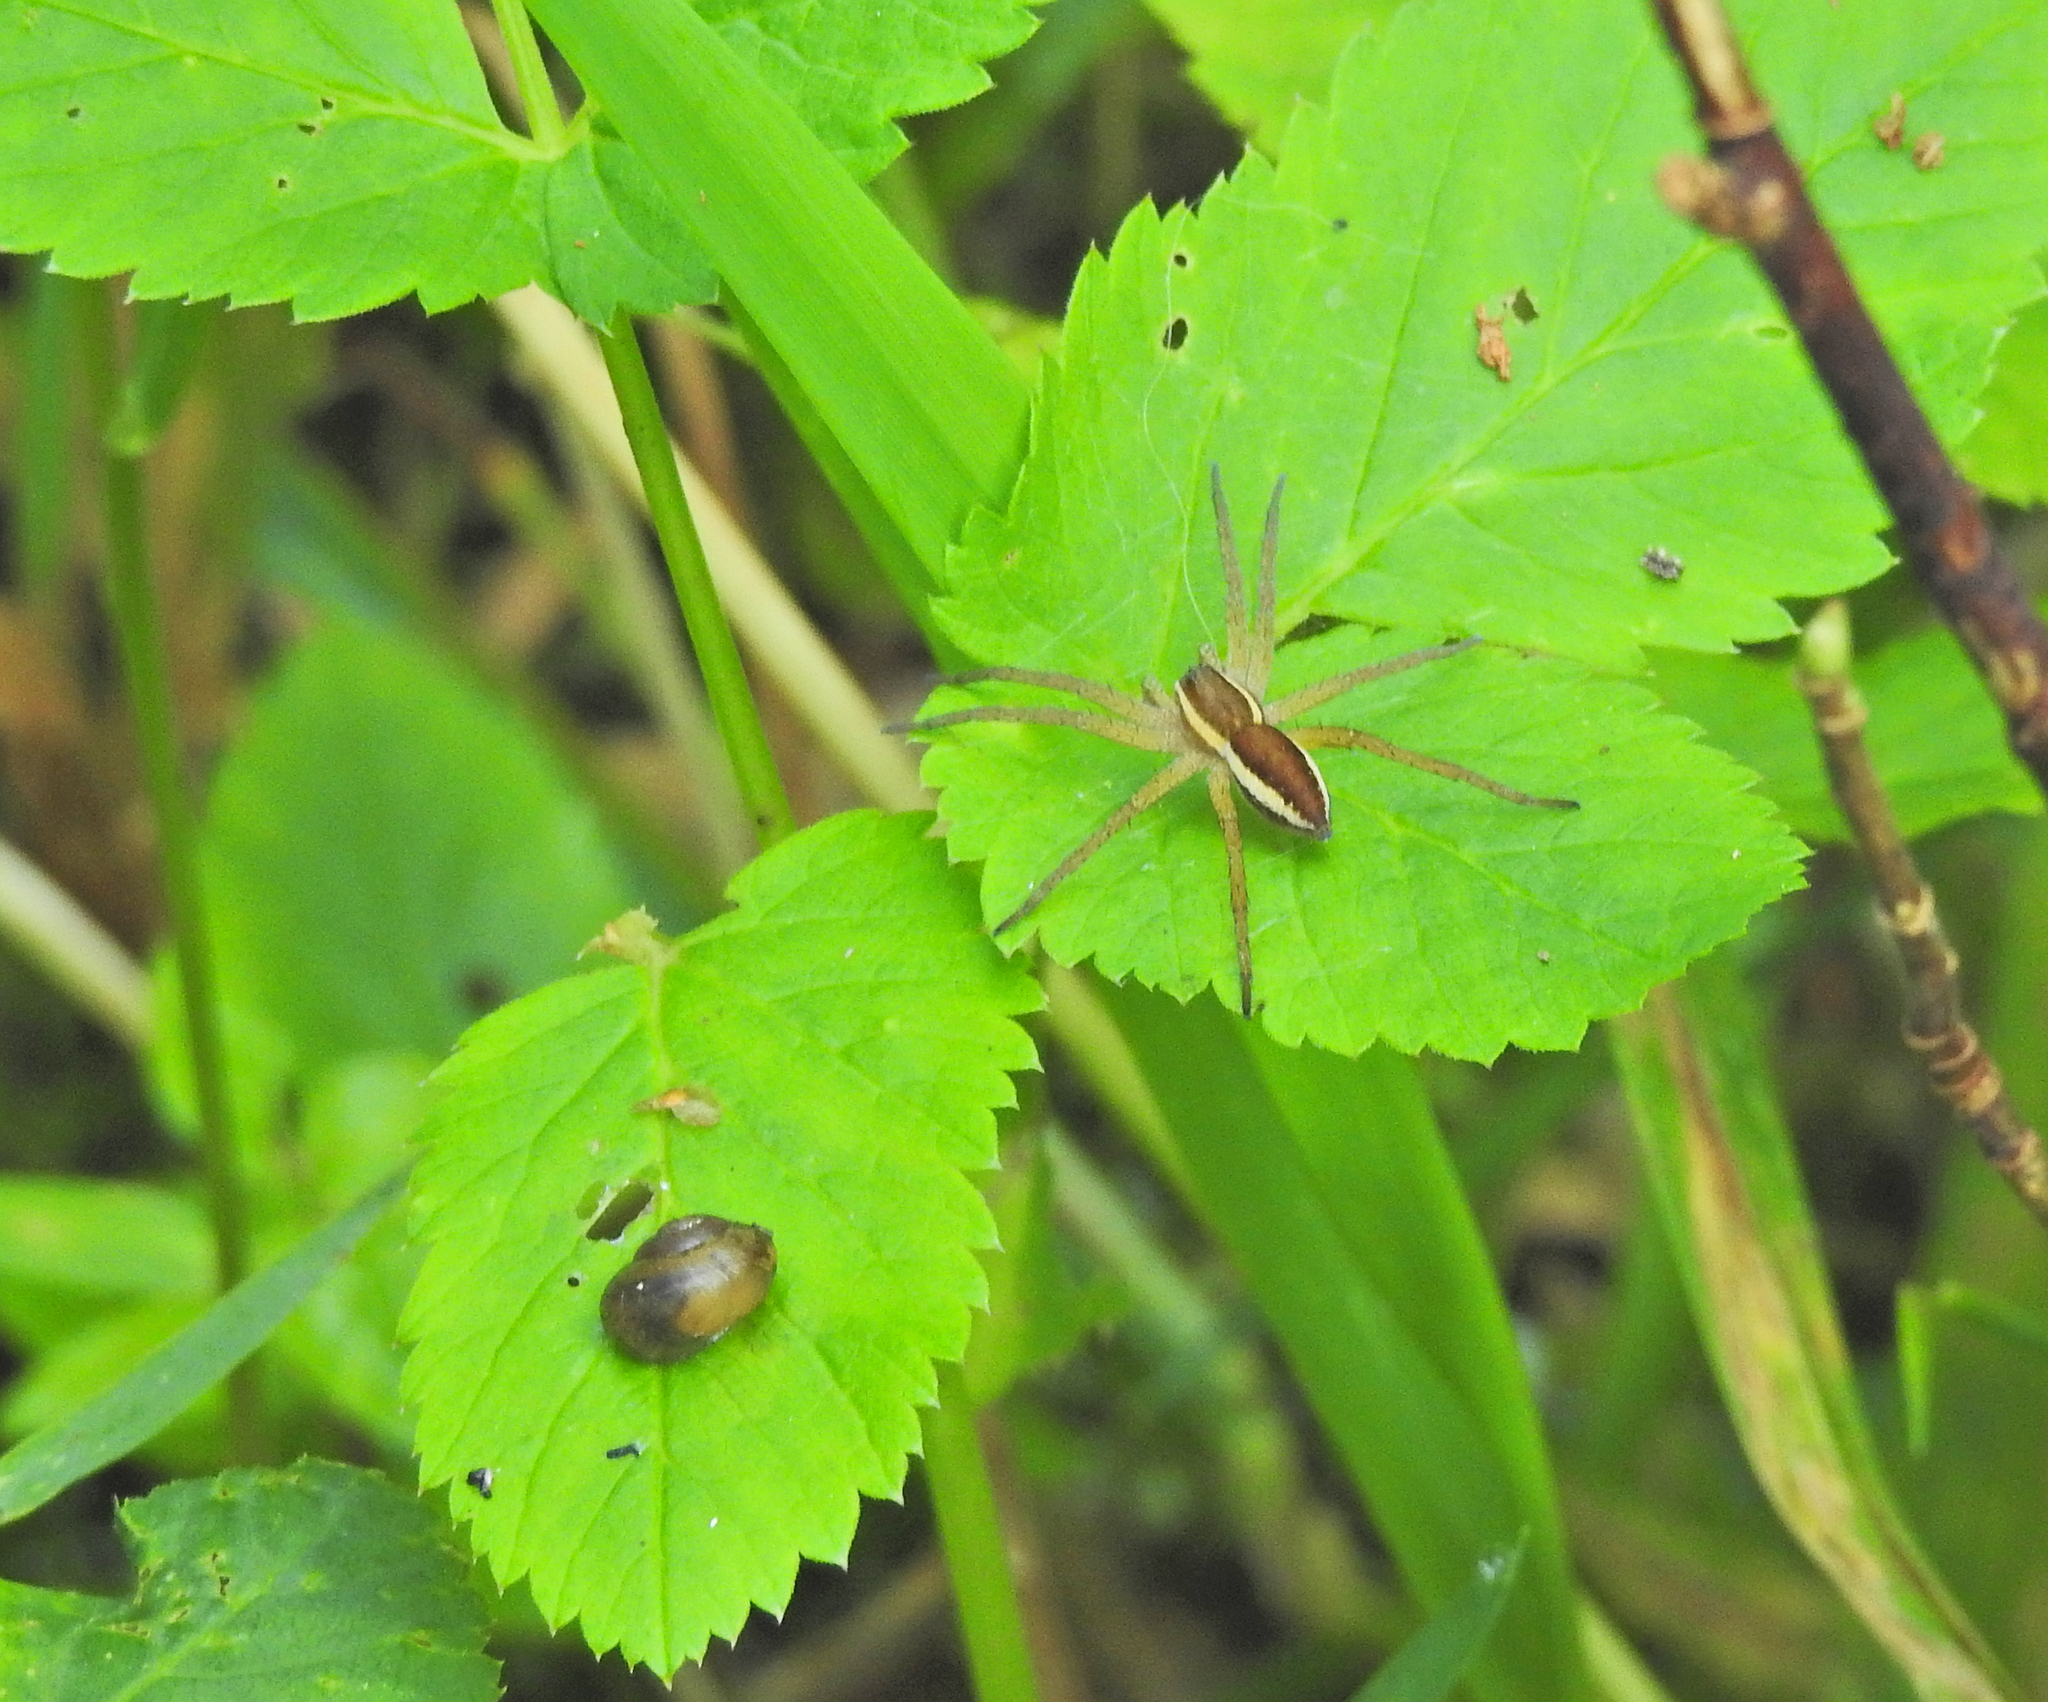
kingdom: Animalia
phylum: Arthropoda
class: Arachnida
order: Araneae
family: Pisauridae
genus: Dolomedes
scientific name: Dolomedes
